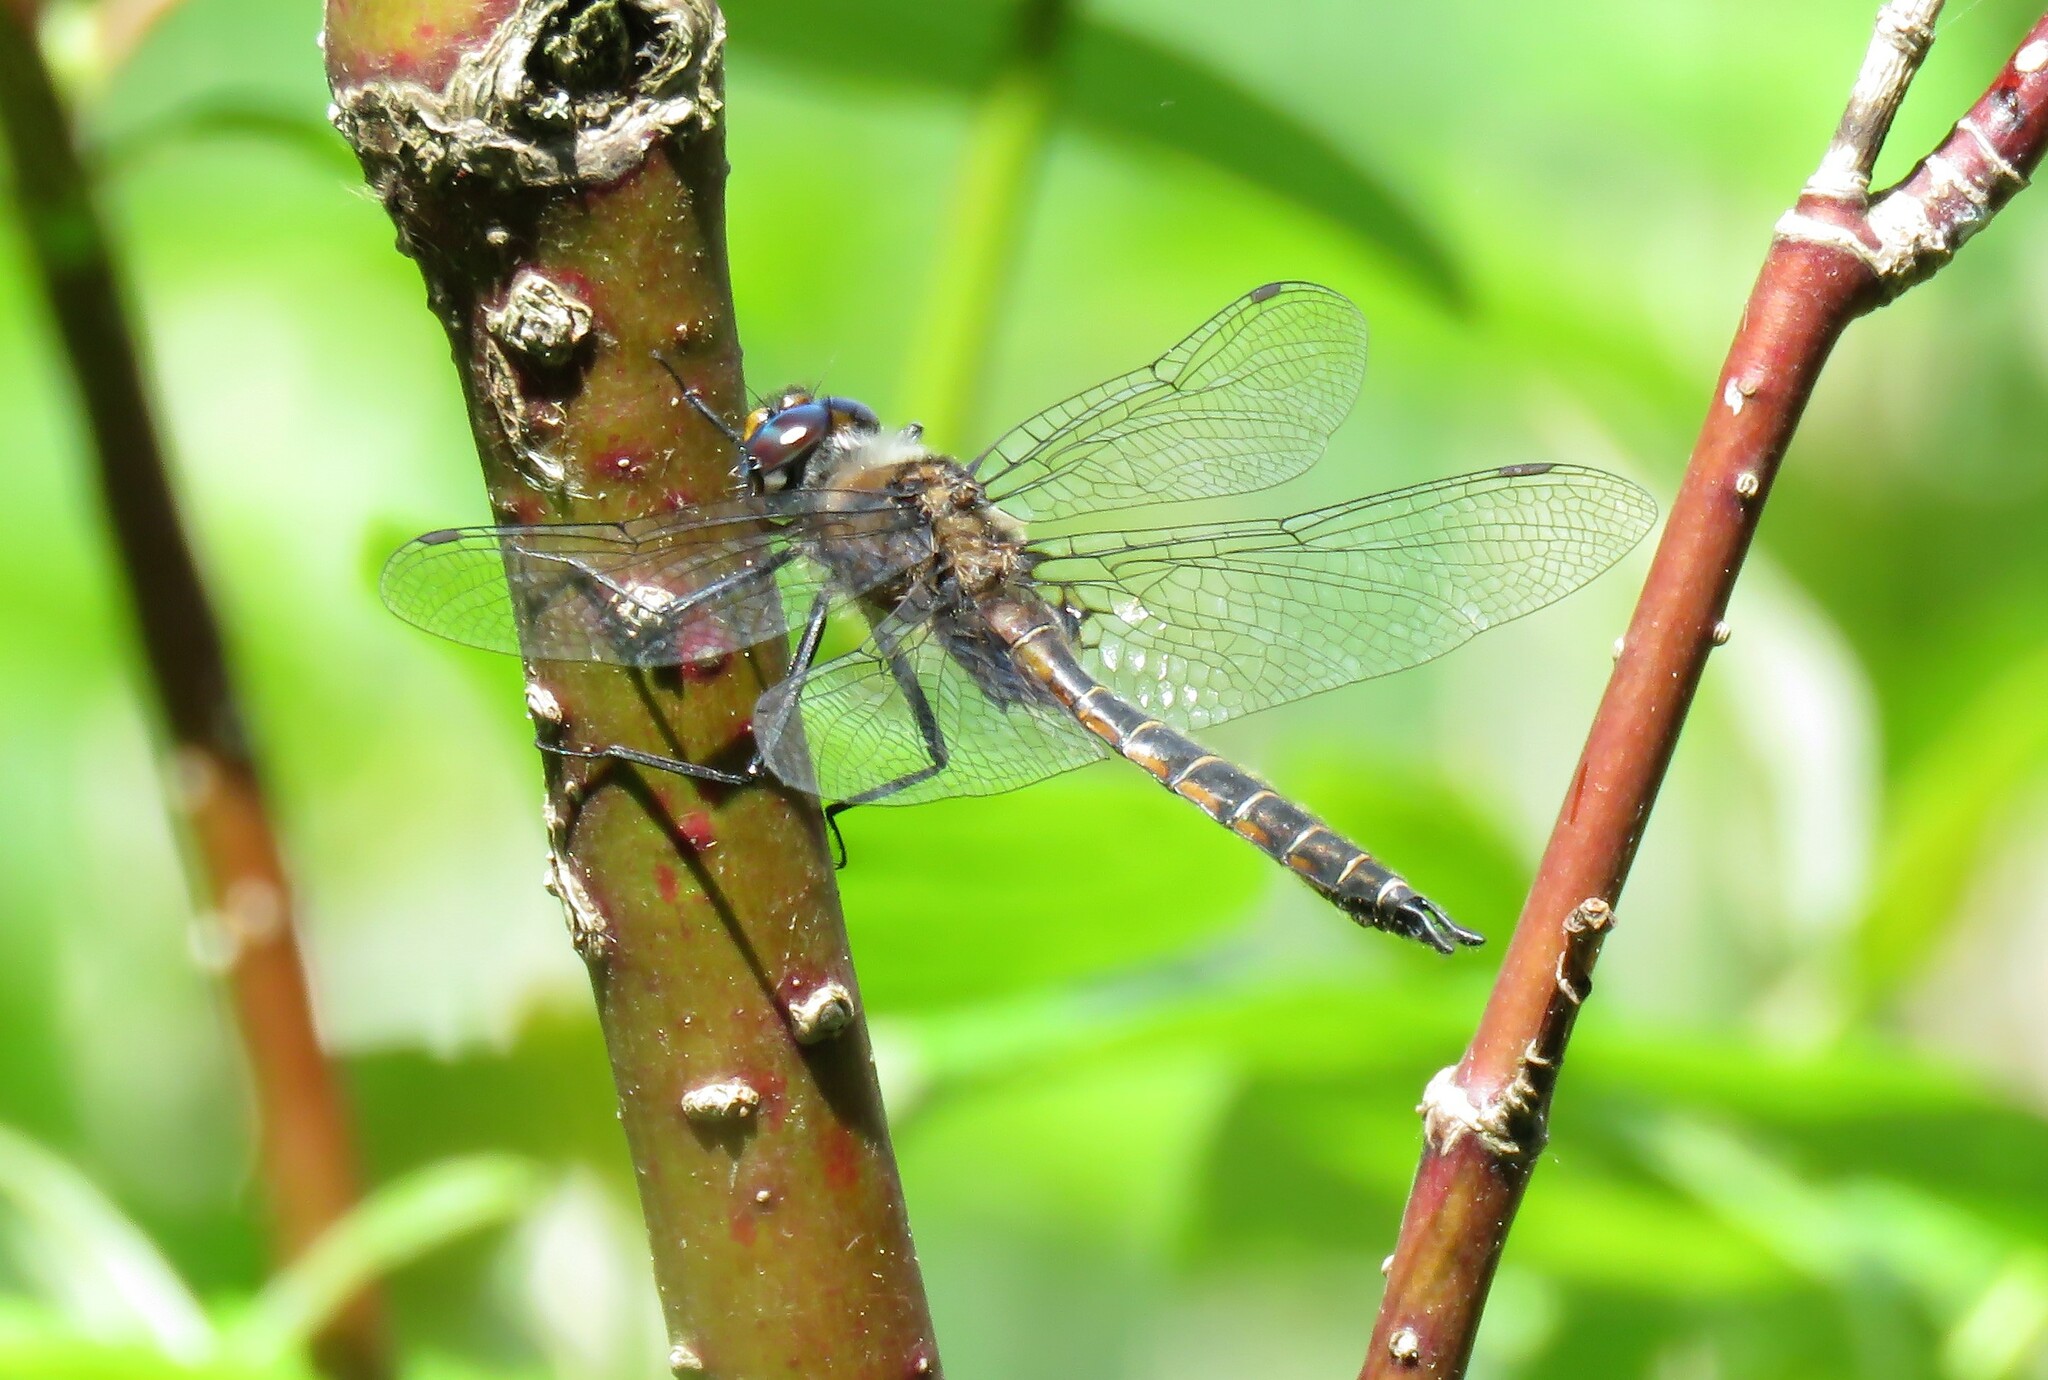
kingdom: Animalia
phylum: Arthropoda
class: Insecta
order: Odonata
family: Corduliidae
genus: Epitheca
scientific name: Epitheca spinigera
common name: Spiny baskettail
